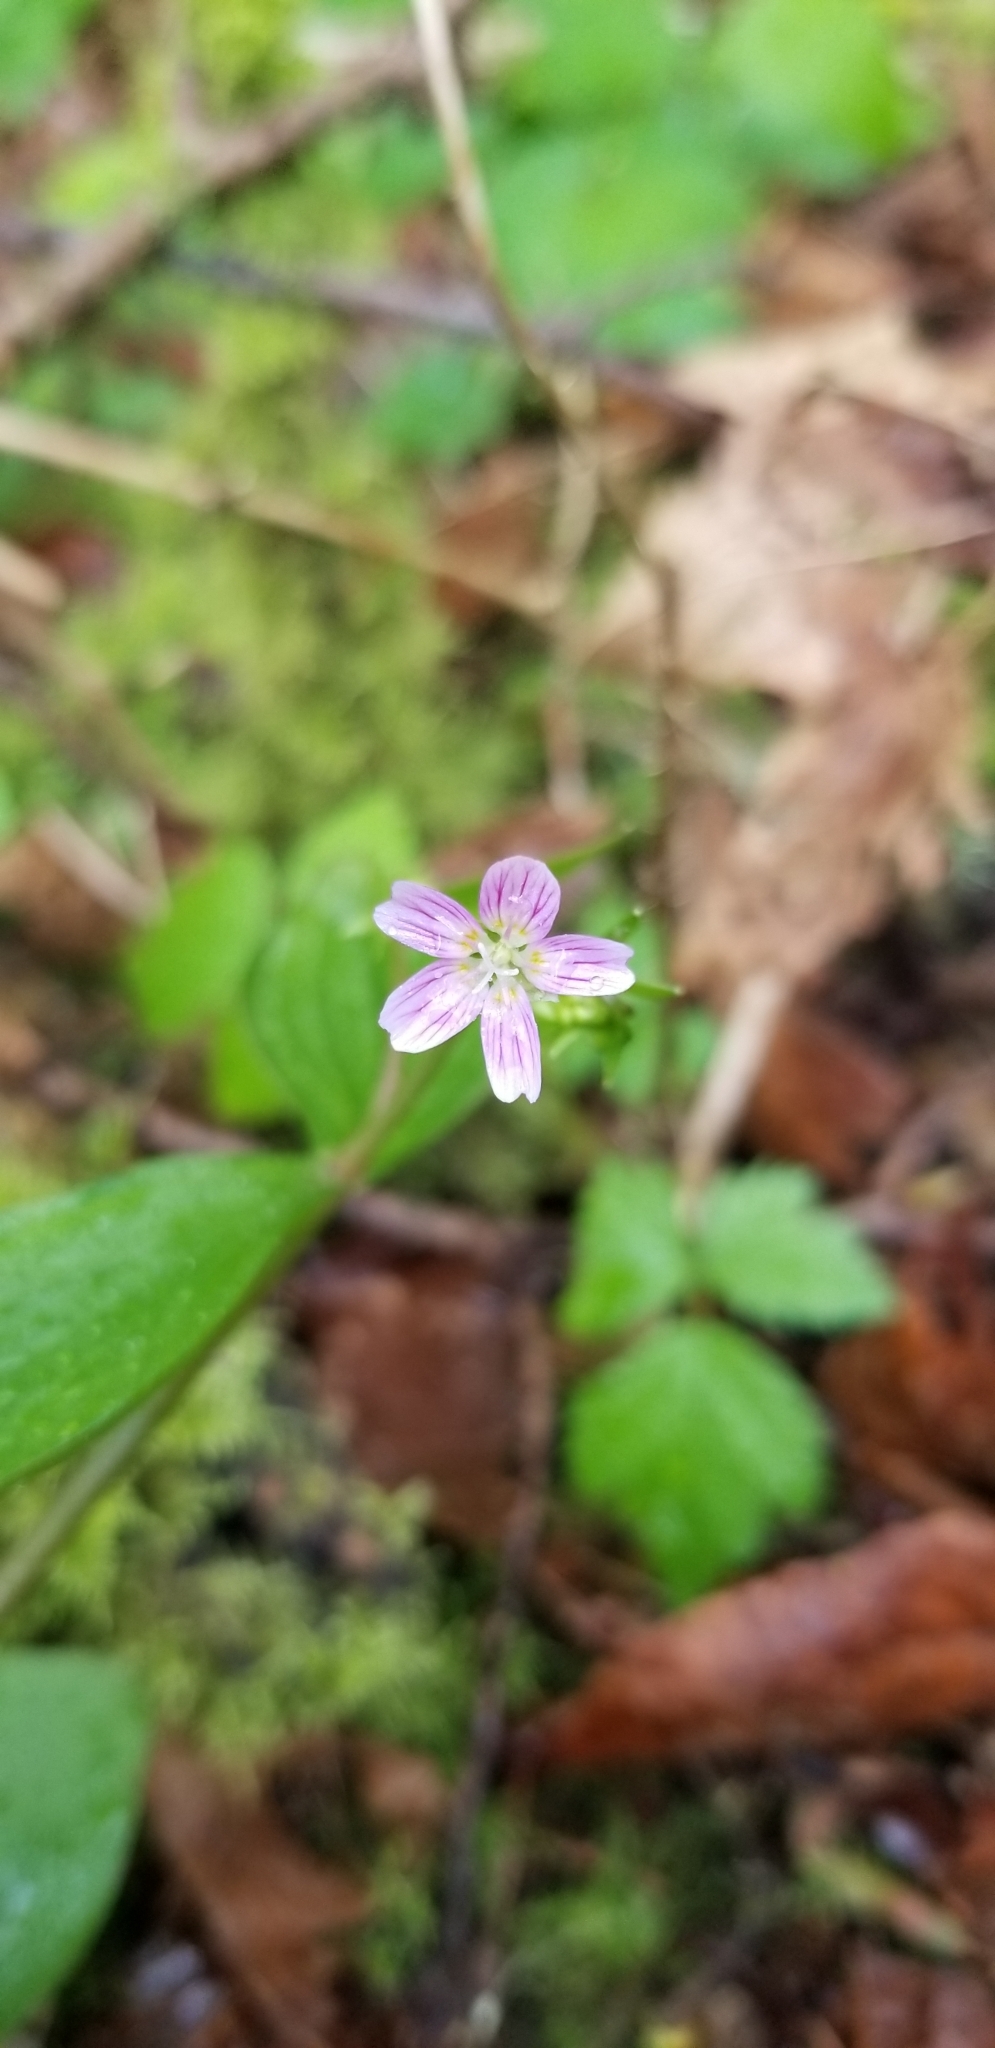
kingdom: Plantae
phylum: Tracheophyta
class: Magnoliopsida
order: Caryophyllales
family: Montiaceae
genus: Claytonia
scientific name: Claytonia sibirica
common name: Pink purslane
